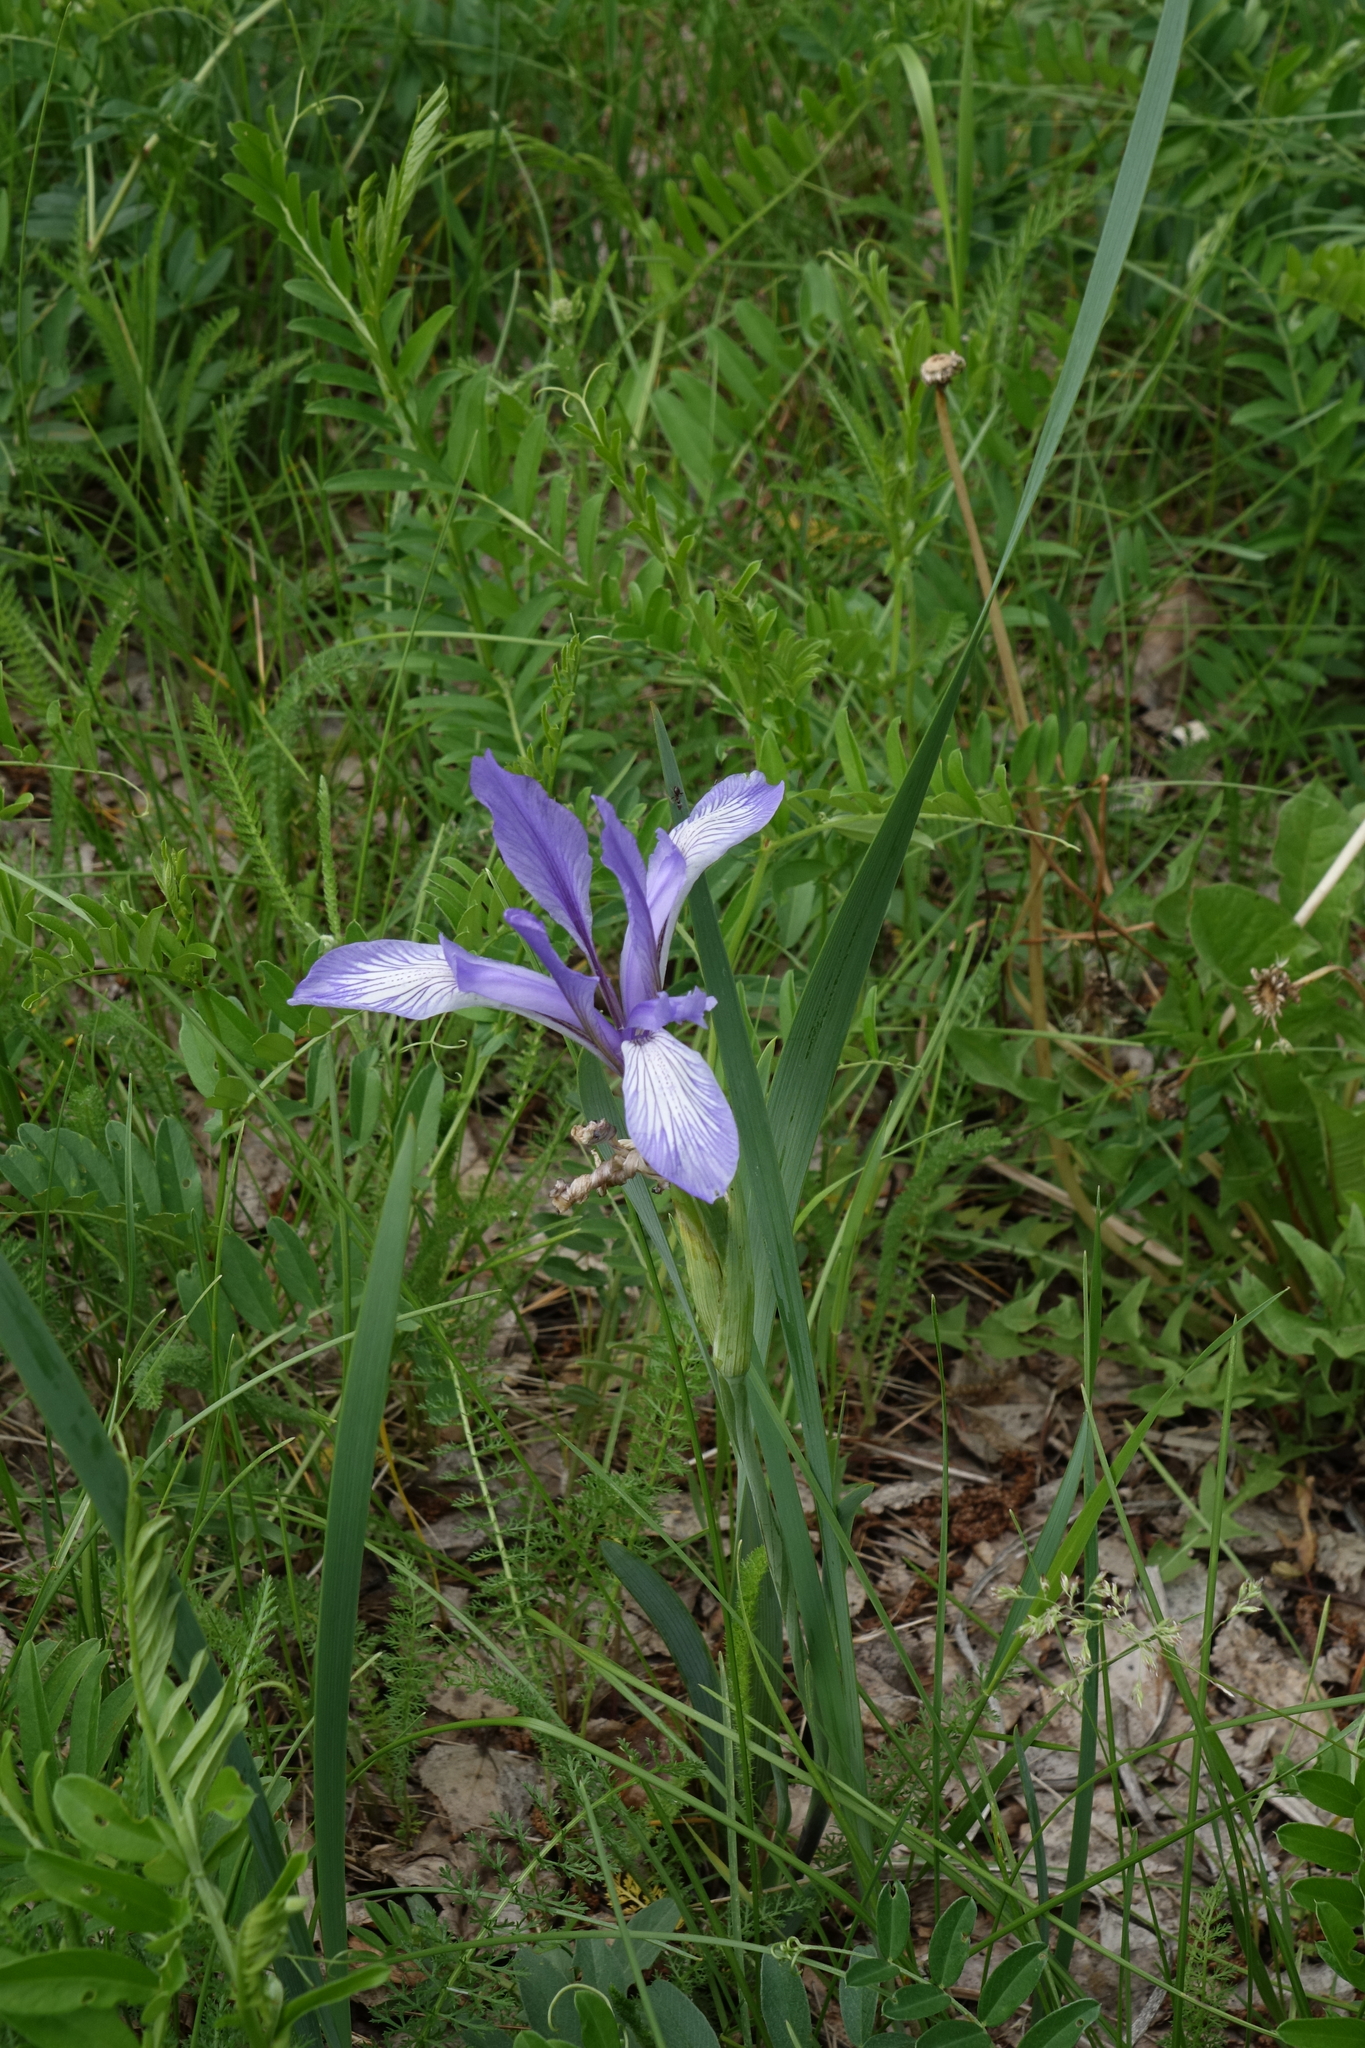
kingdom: Plantae
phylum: Tracheophyta
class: Liliopsida
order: Asparagales
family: Iridaceae
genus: Iris
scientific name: Iris lactea
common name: White-flower chinese iris
